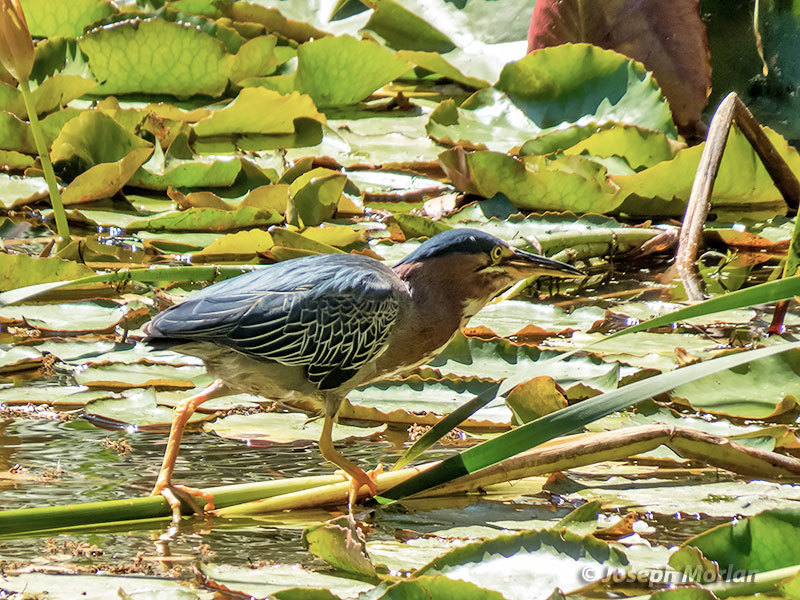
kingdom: Animalia
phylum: Chordata
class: Aves
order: Pelecaniformes
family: Ardeidae
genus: Butorides
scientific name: Butorides virescens
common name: Green heron
